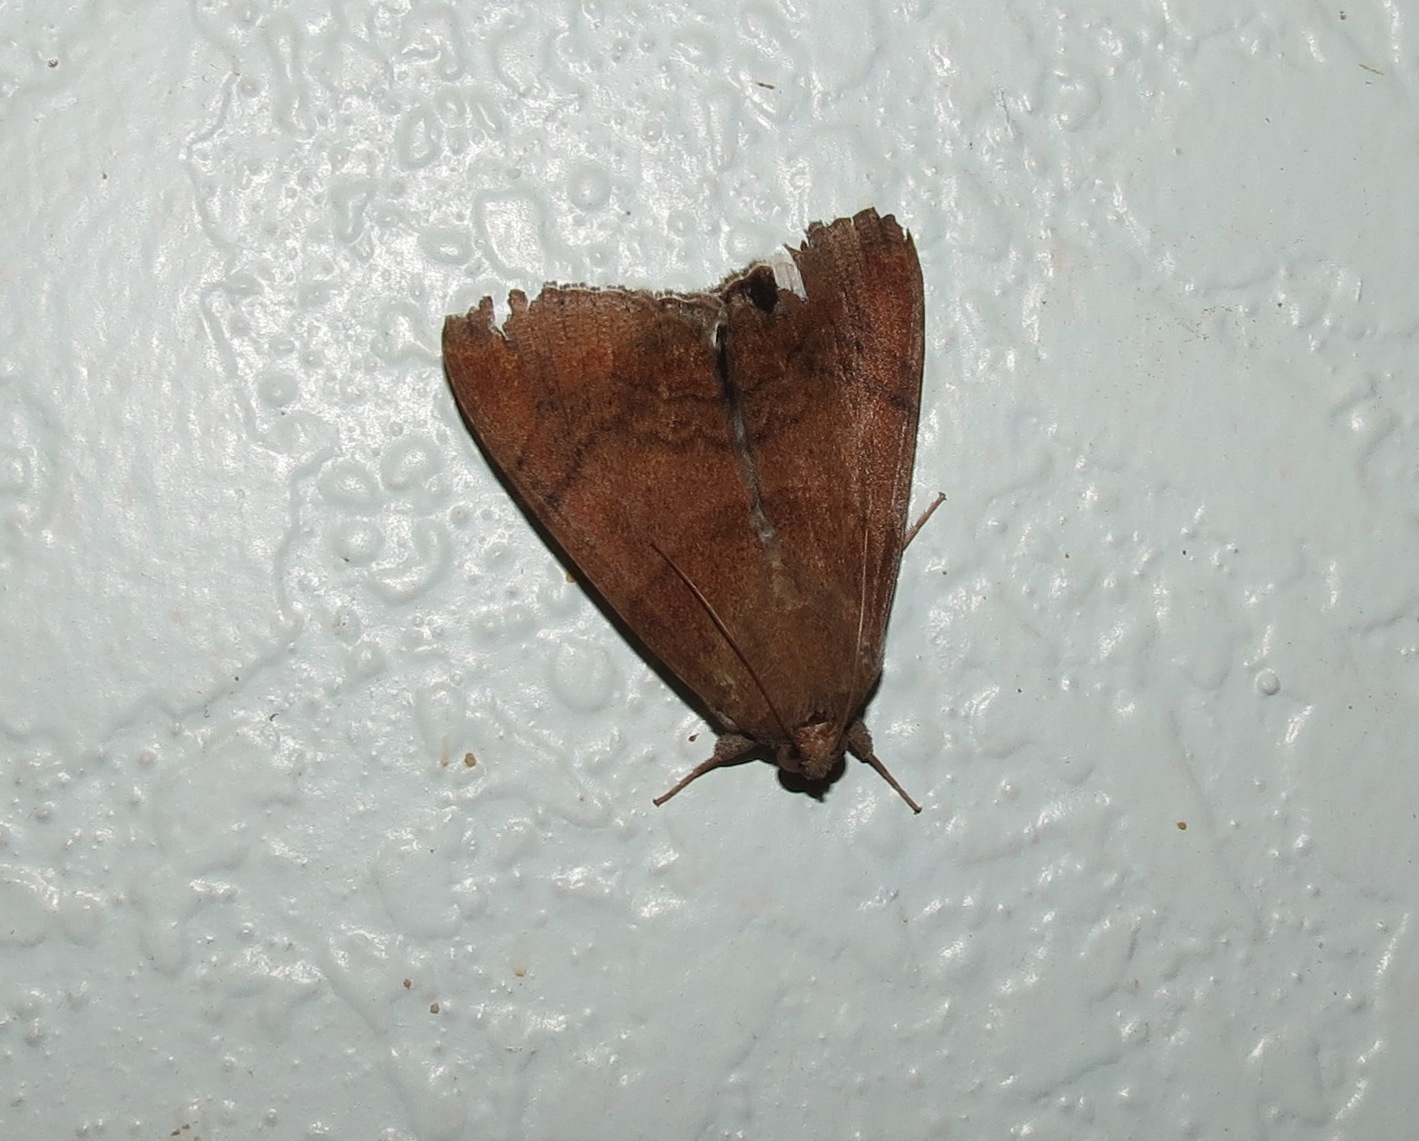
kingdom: Animalia
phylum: Arthropoda
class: Insecta
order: Lepidoptera
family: Erebidae
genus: Achaea
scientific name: Achaea janata
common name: Croton caterpillar
